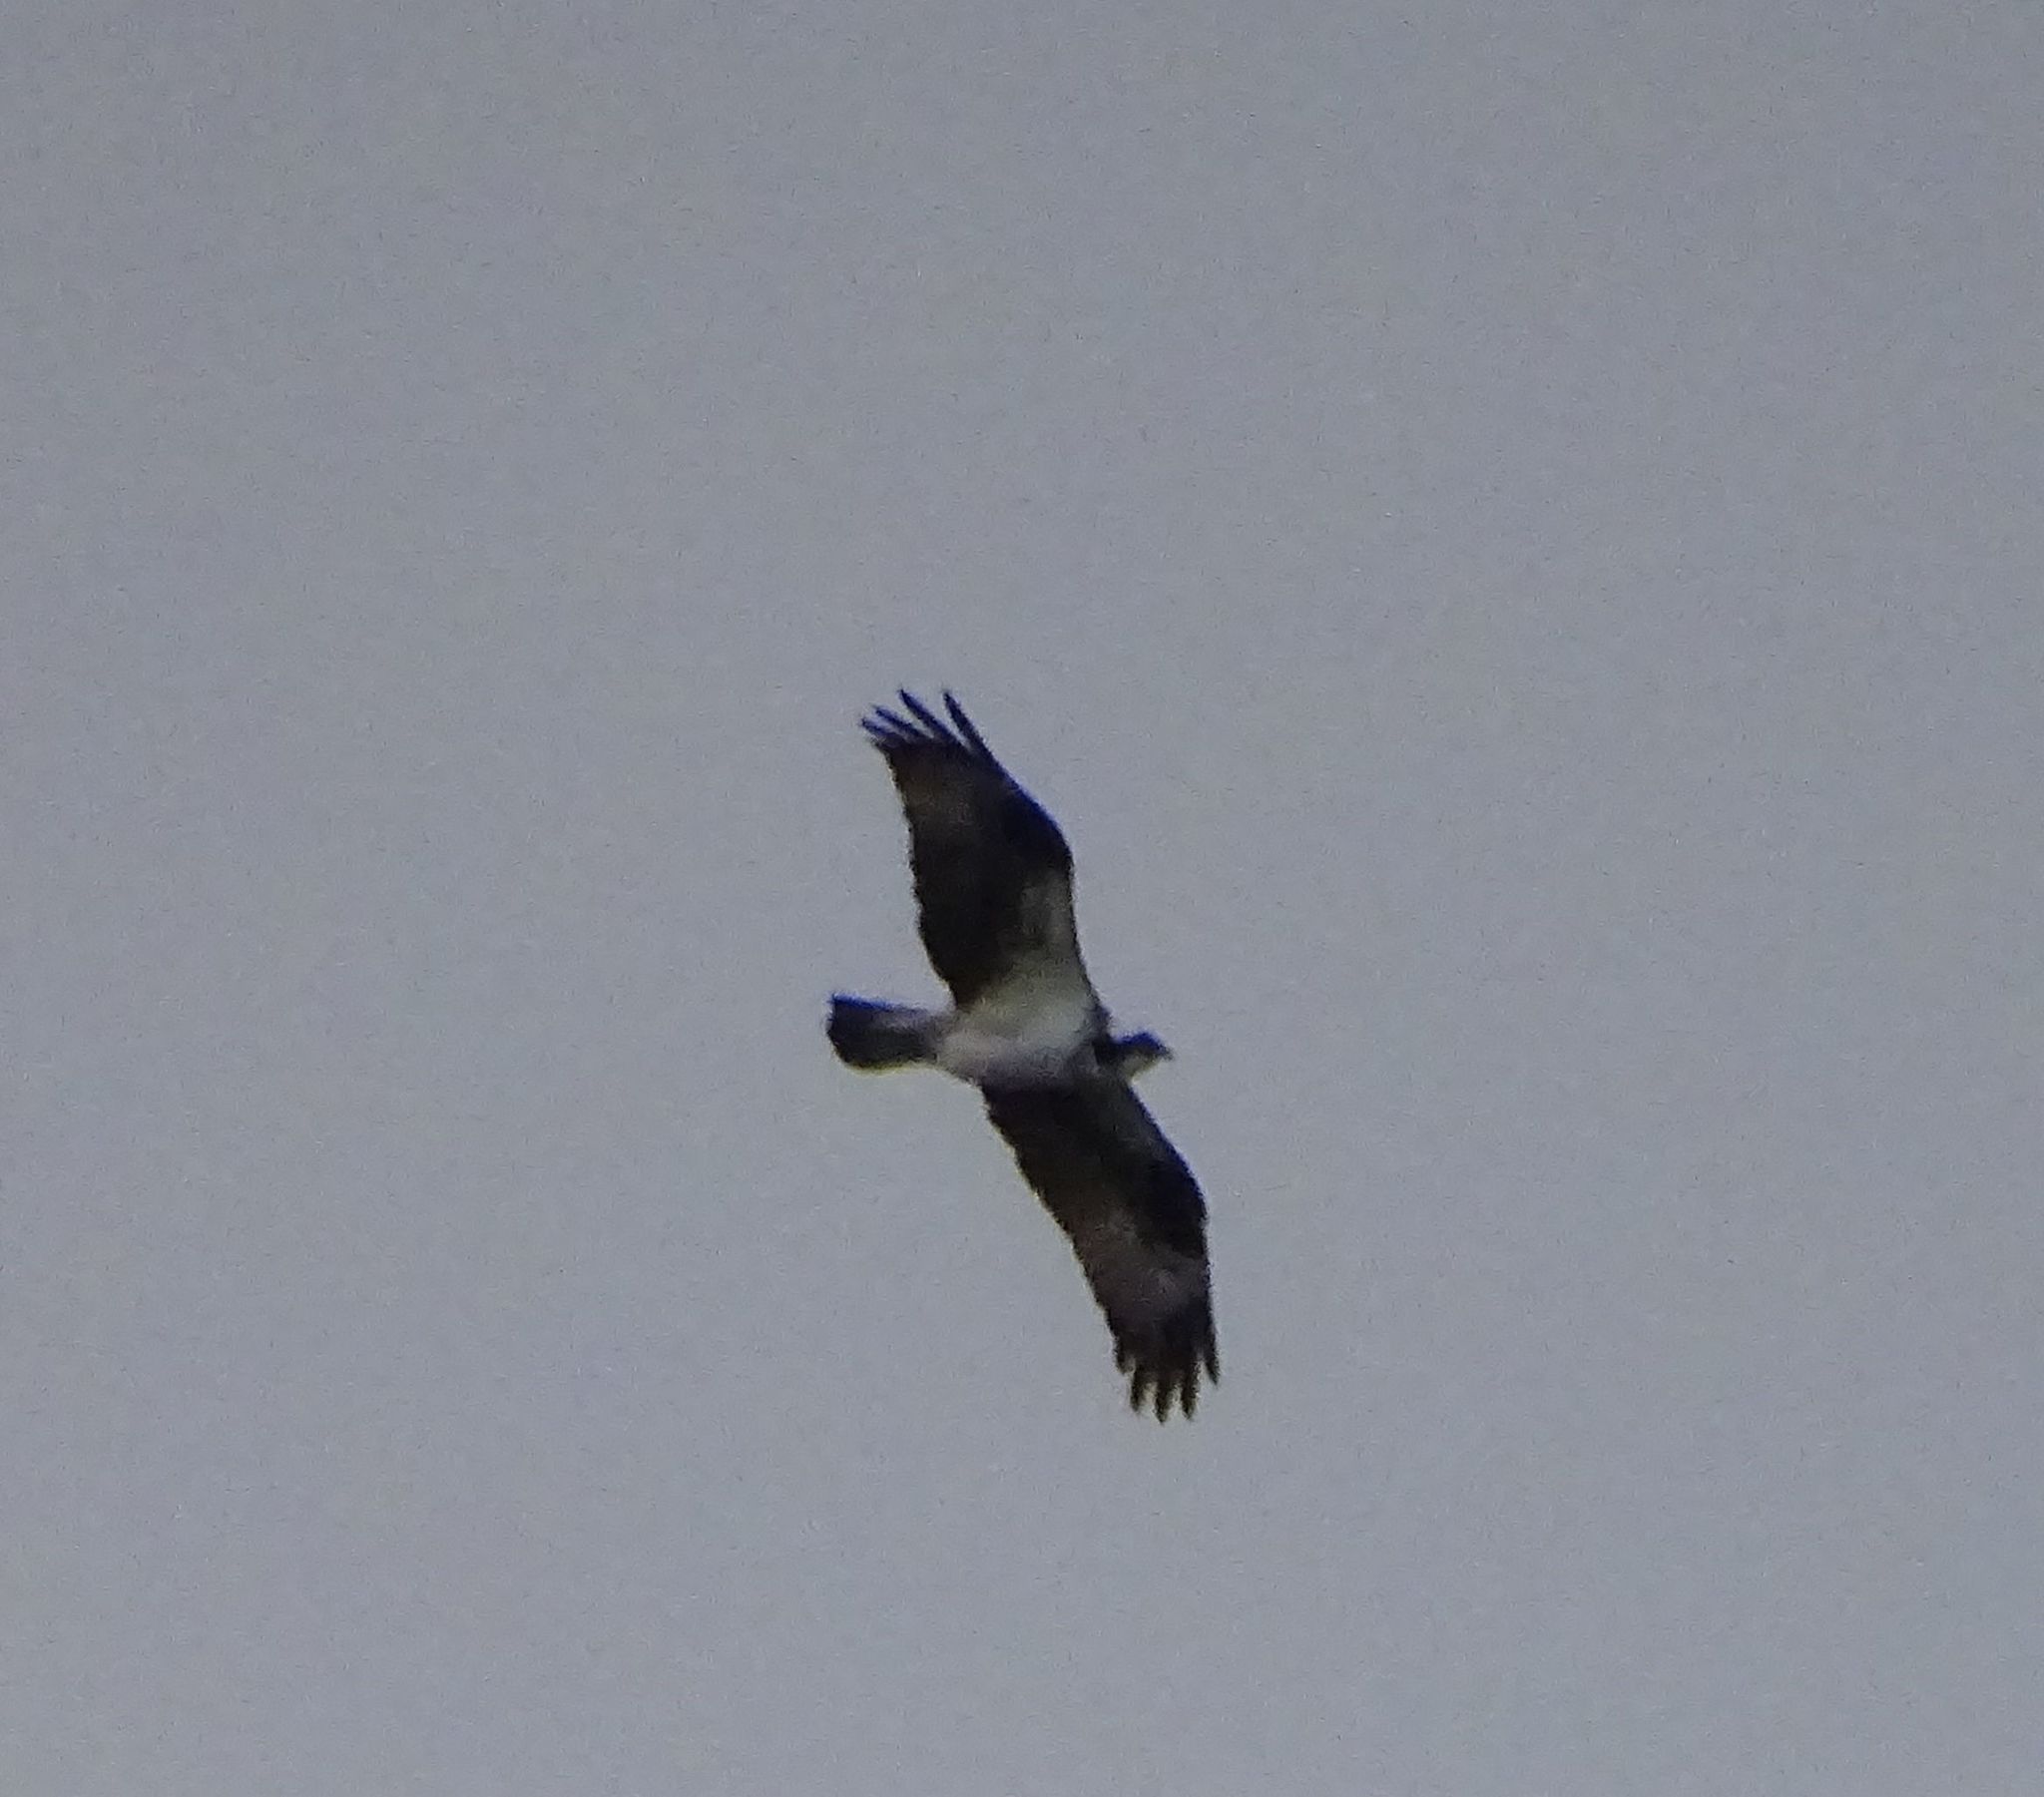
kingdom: Animalia
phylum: Chordata
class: Aves
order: Accipitriformes
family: Pandionidae
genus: Pandion
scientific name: Pandion haliaetus
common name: Osprey
